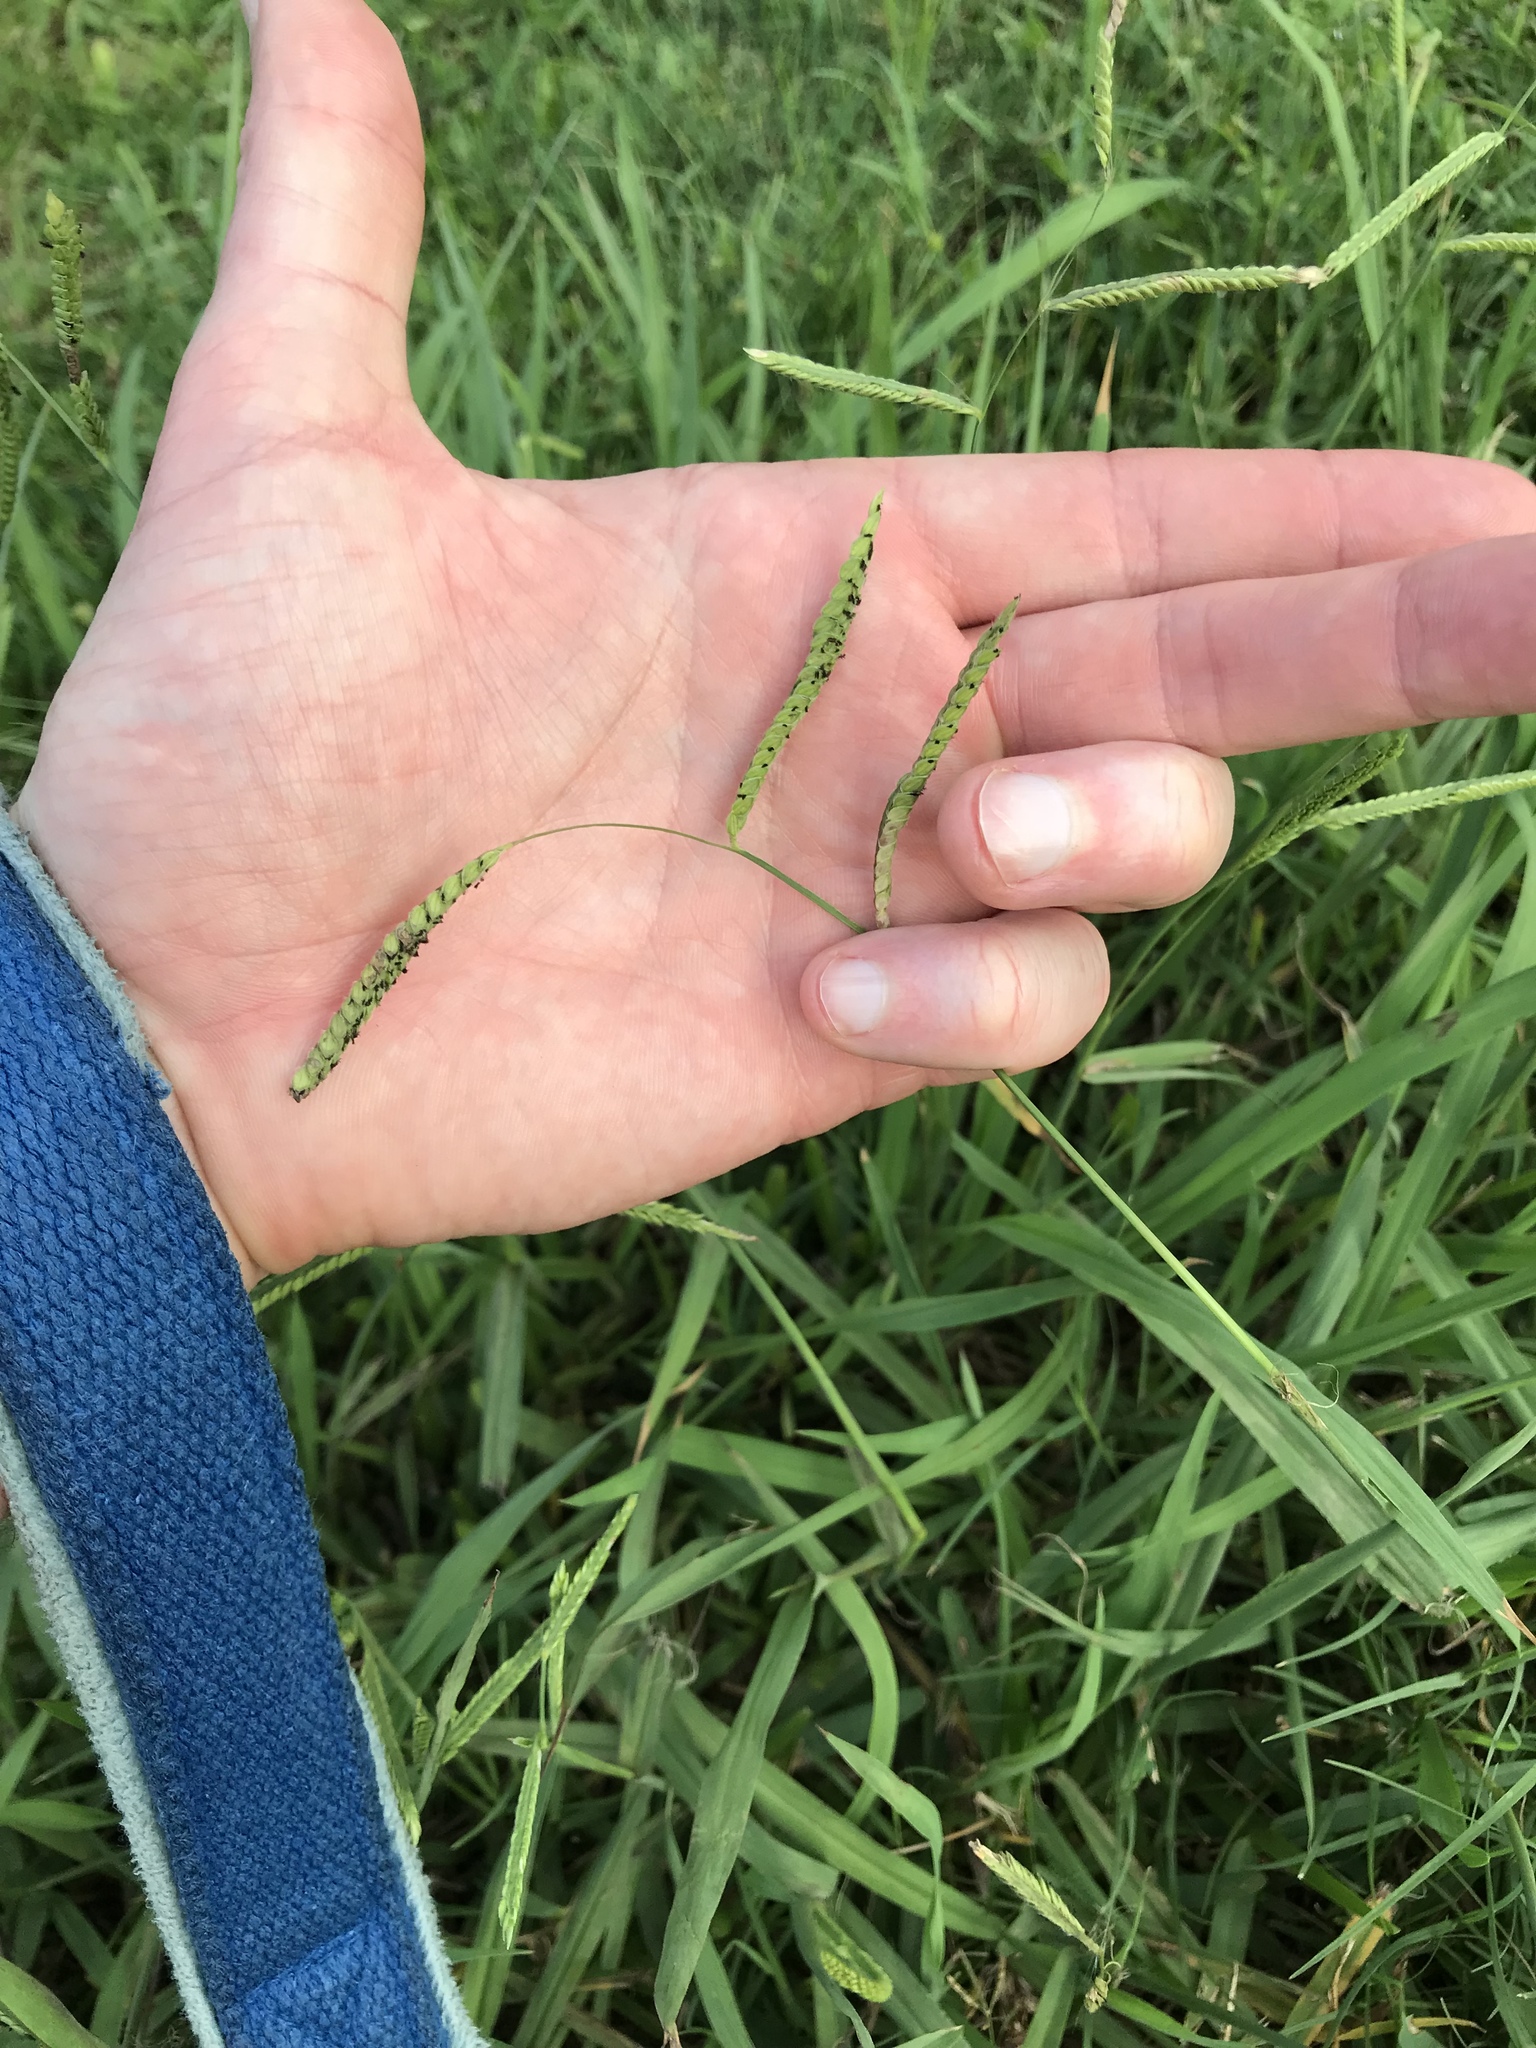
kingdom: Plantae
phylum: Tracheophyta
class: Liliopsida
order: Poales
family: Poaceae
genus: Paspalum
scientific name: Paspalum dilatatum
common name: Dallisgrass
